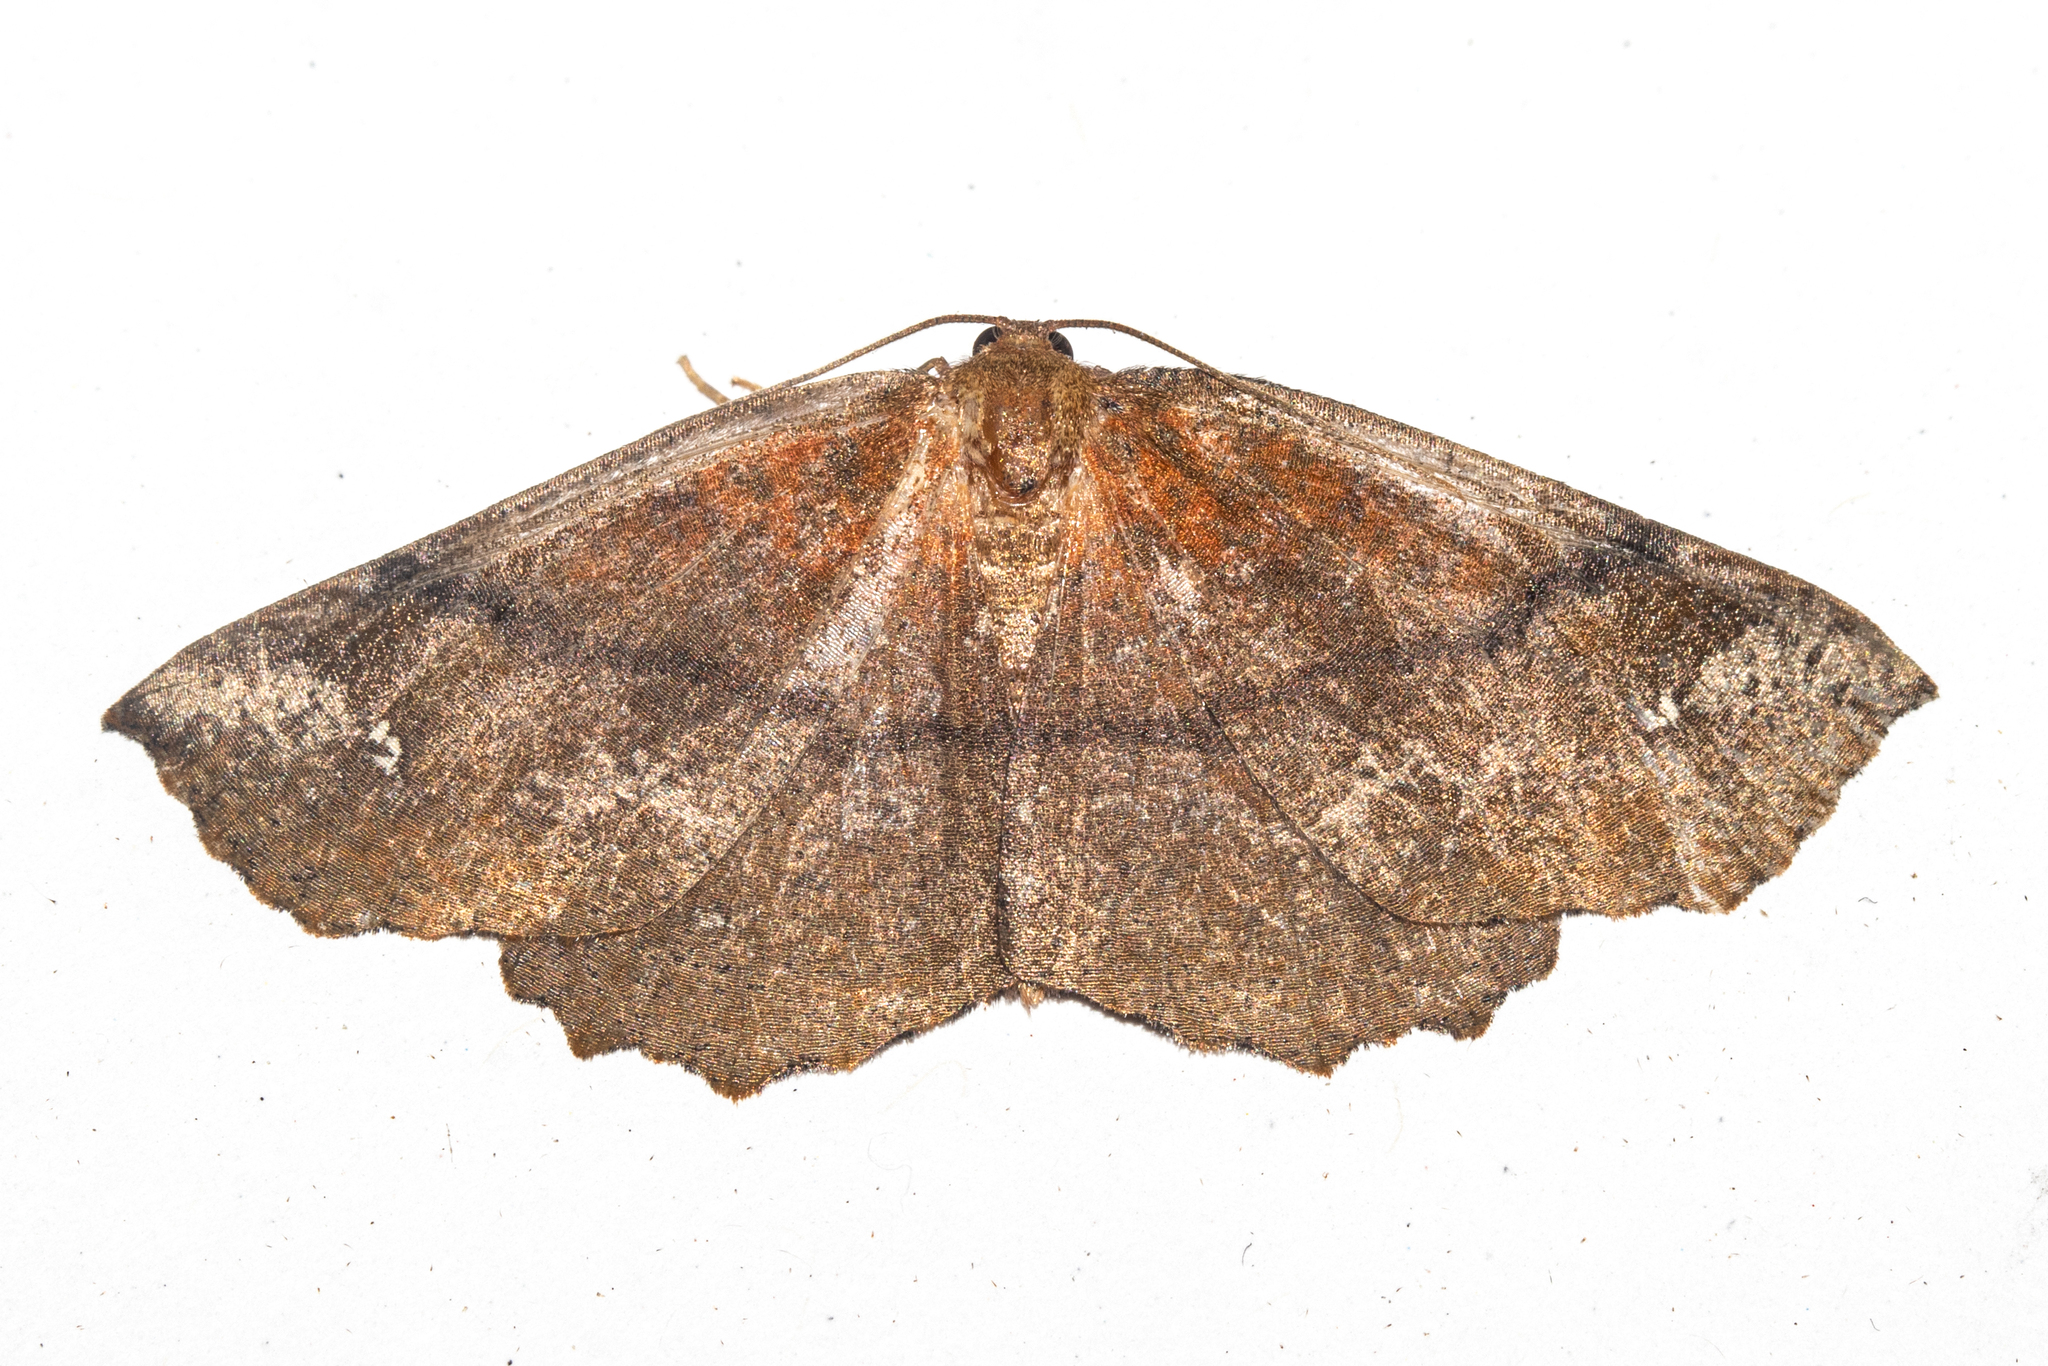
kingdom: Animalia
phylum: Arthropoda
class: Insecta
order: Lepidoptera
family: Geometridae
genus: Xyridacma
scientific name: Xyridacma ustaria
